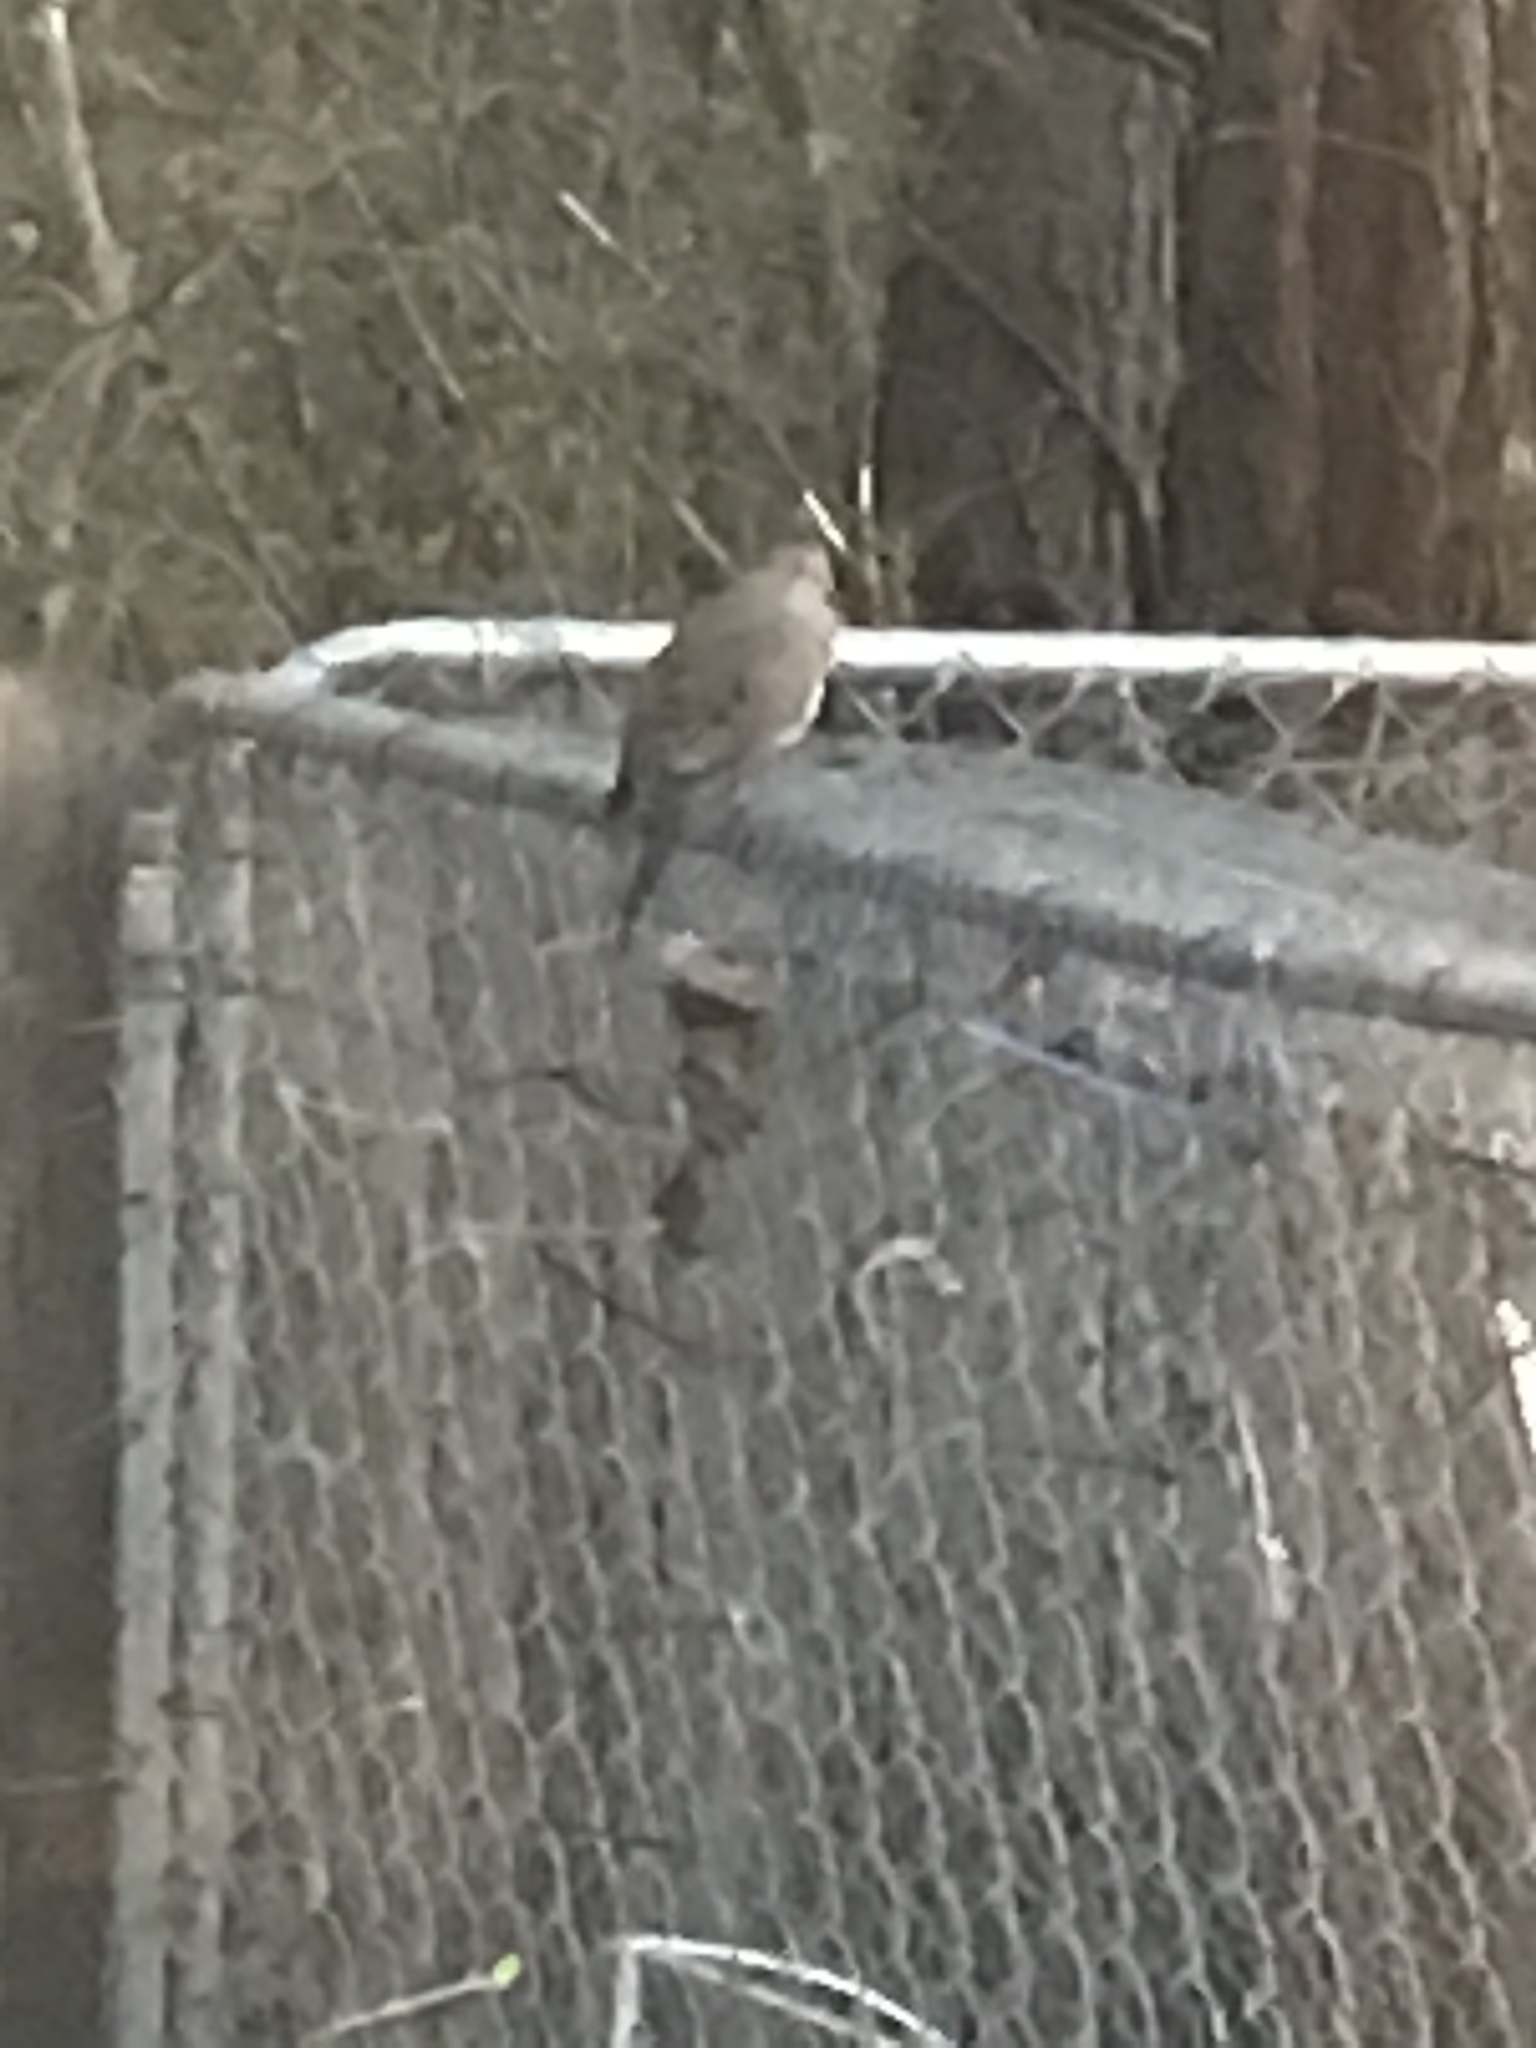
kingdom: Animalia
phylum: Chordata
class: Aves
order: Columbiformes
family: Columbidae
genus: Zenaida
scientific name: Zenaida macroura
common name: Mourning dove
